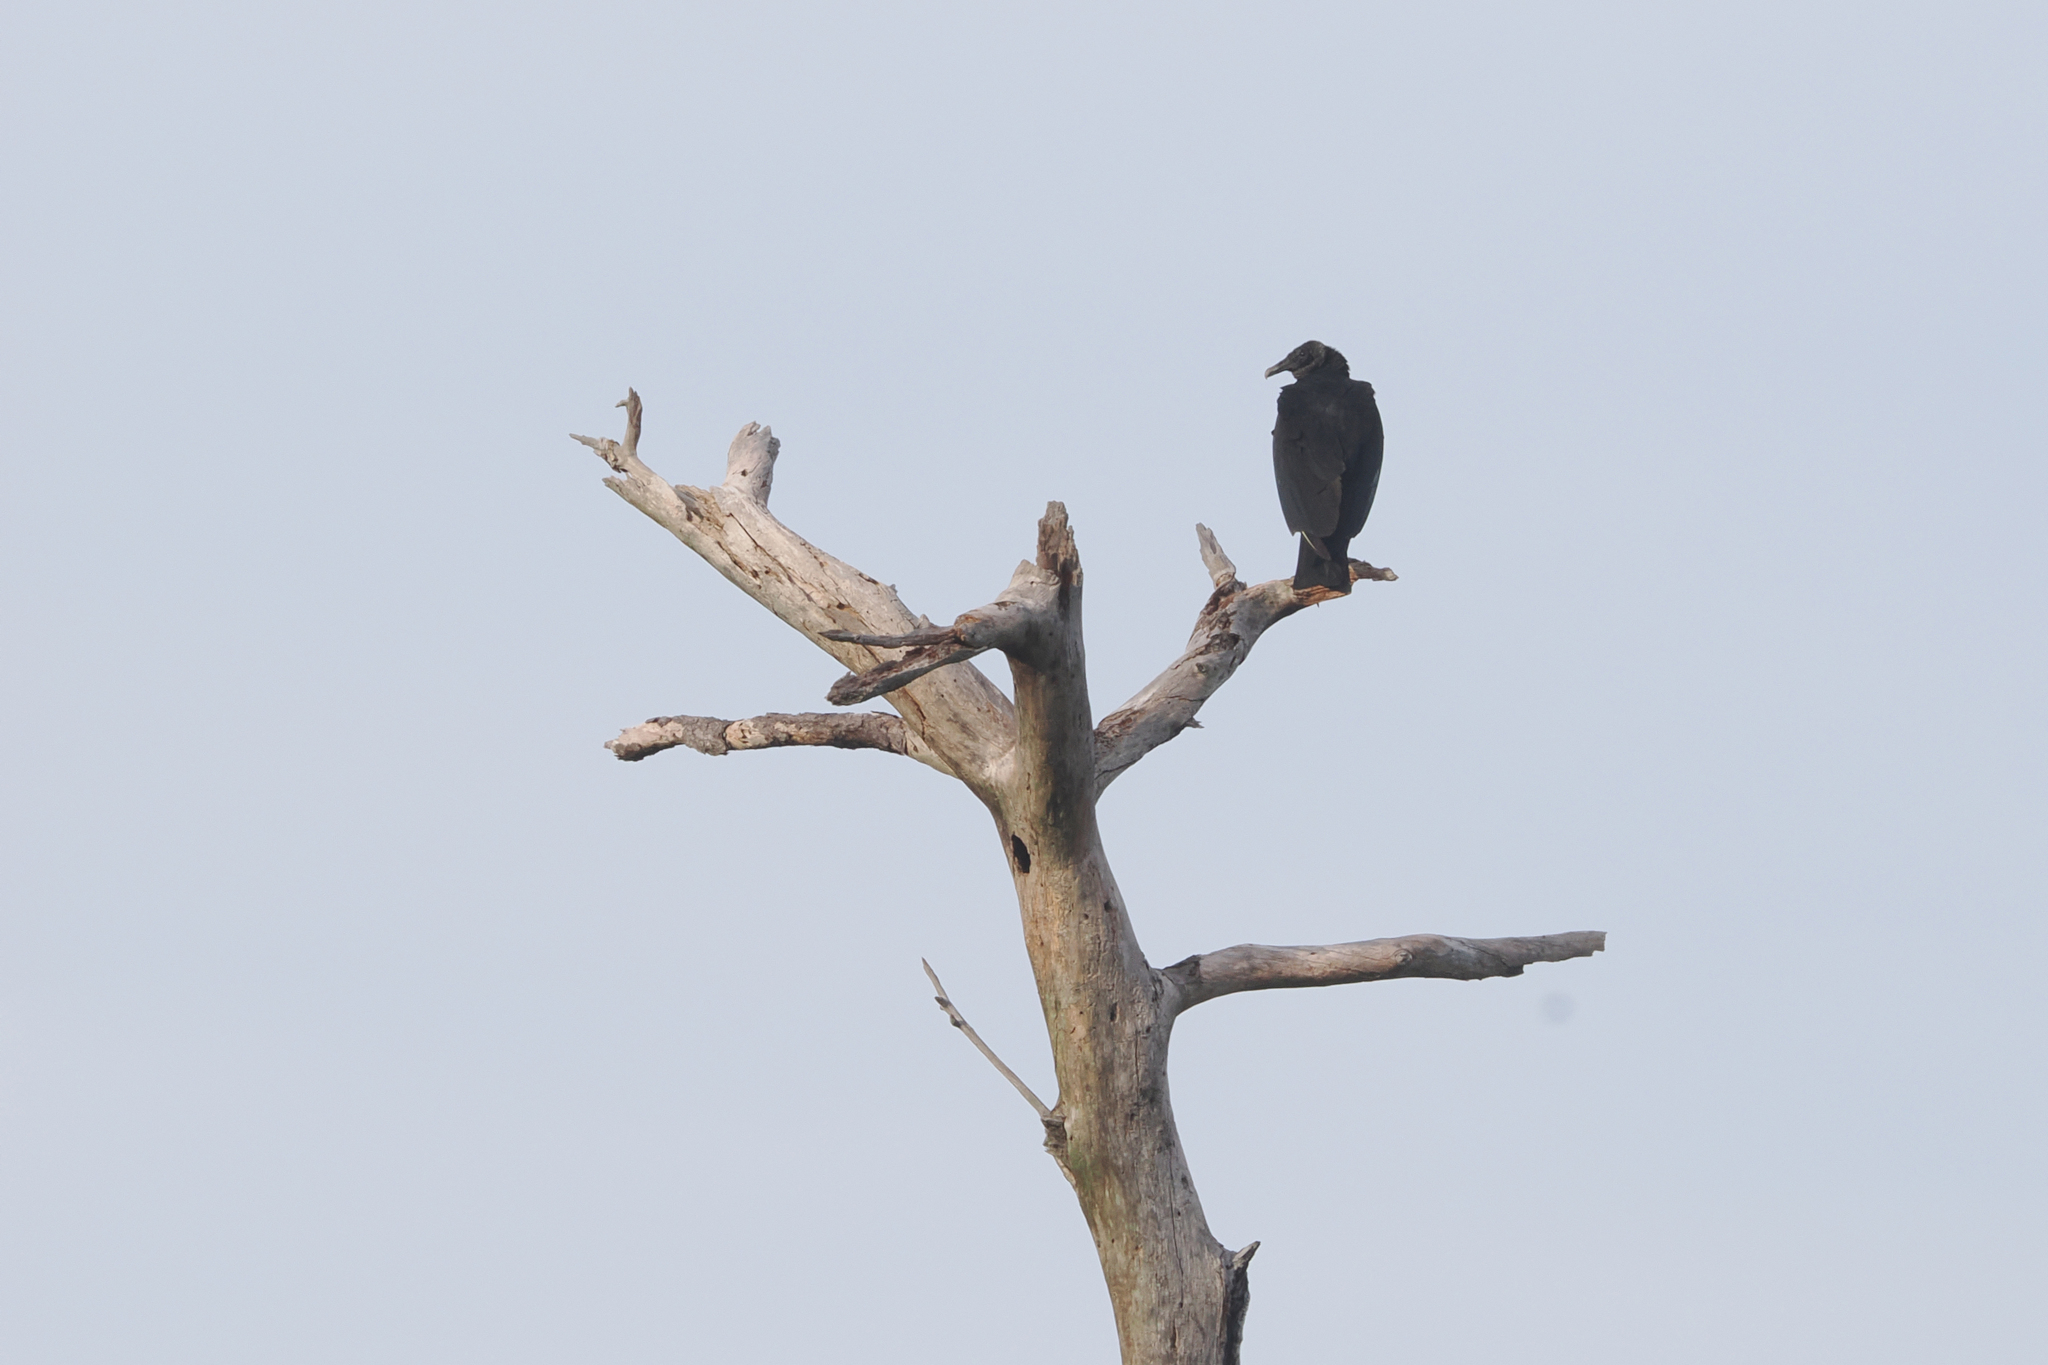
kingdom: Animalia
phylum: Chordata
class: Aves
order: Accipitriformes
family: Cathartidae
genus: Coragyps
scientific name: Coragyps atratus
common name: Black vulture
